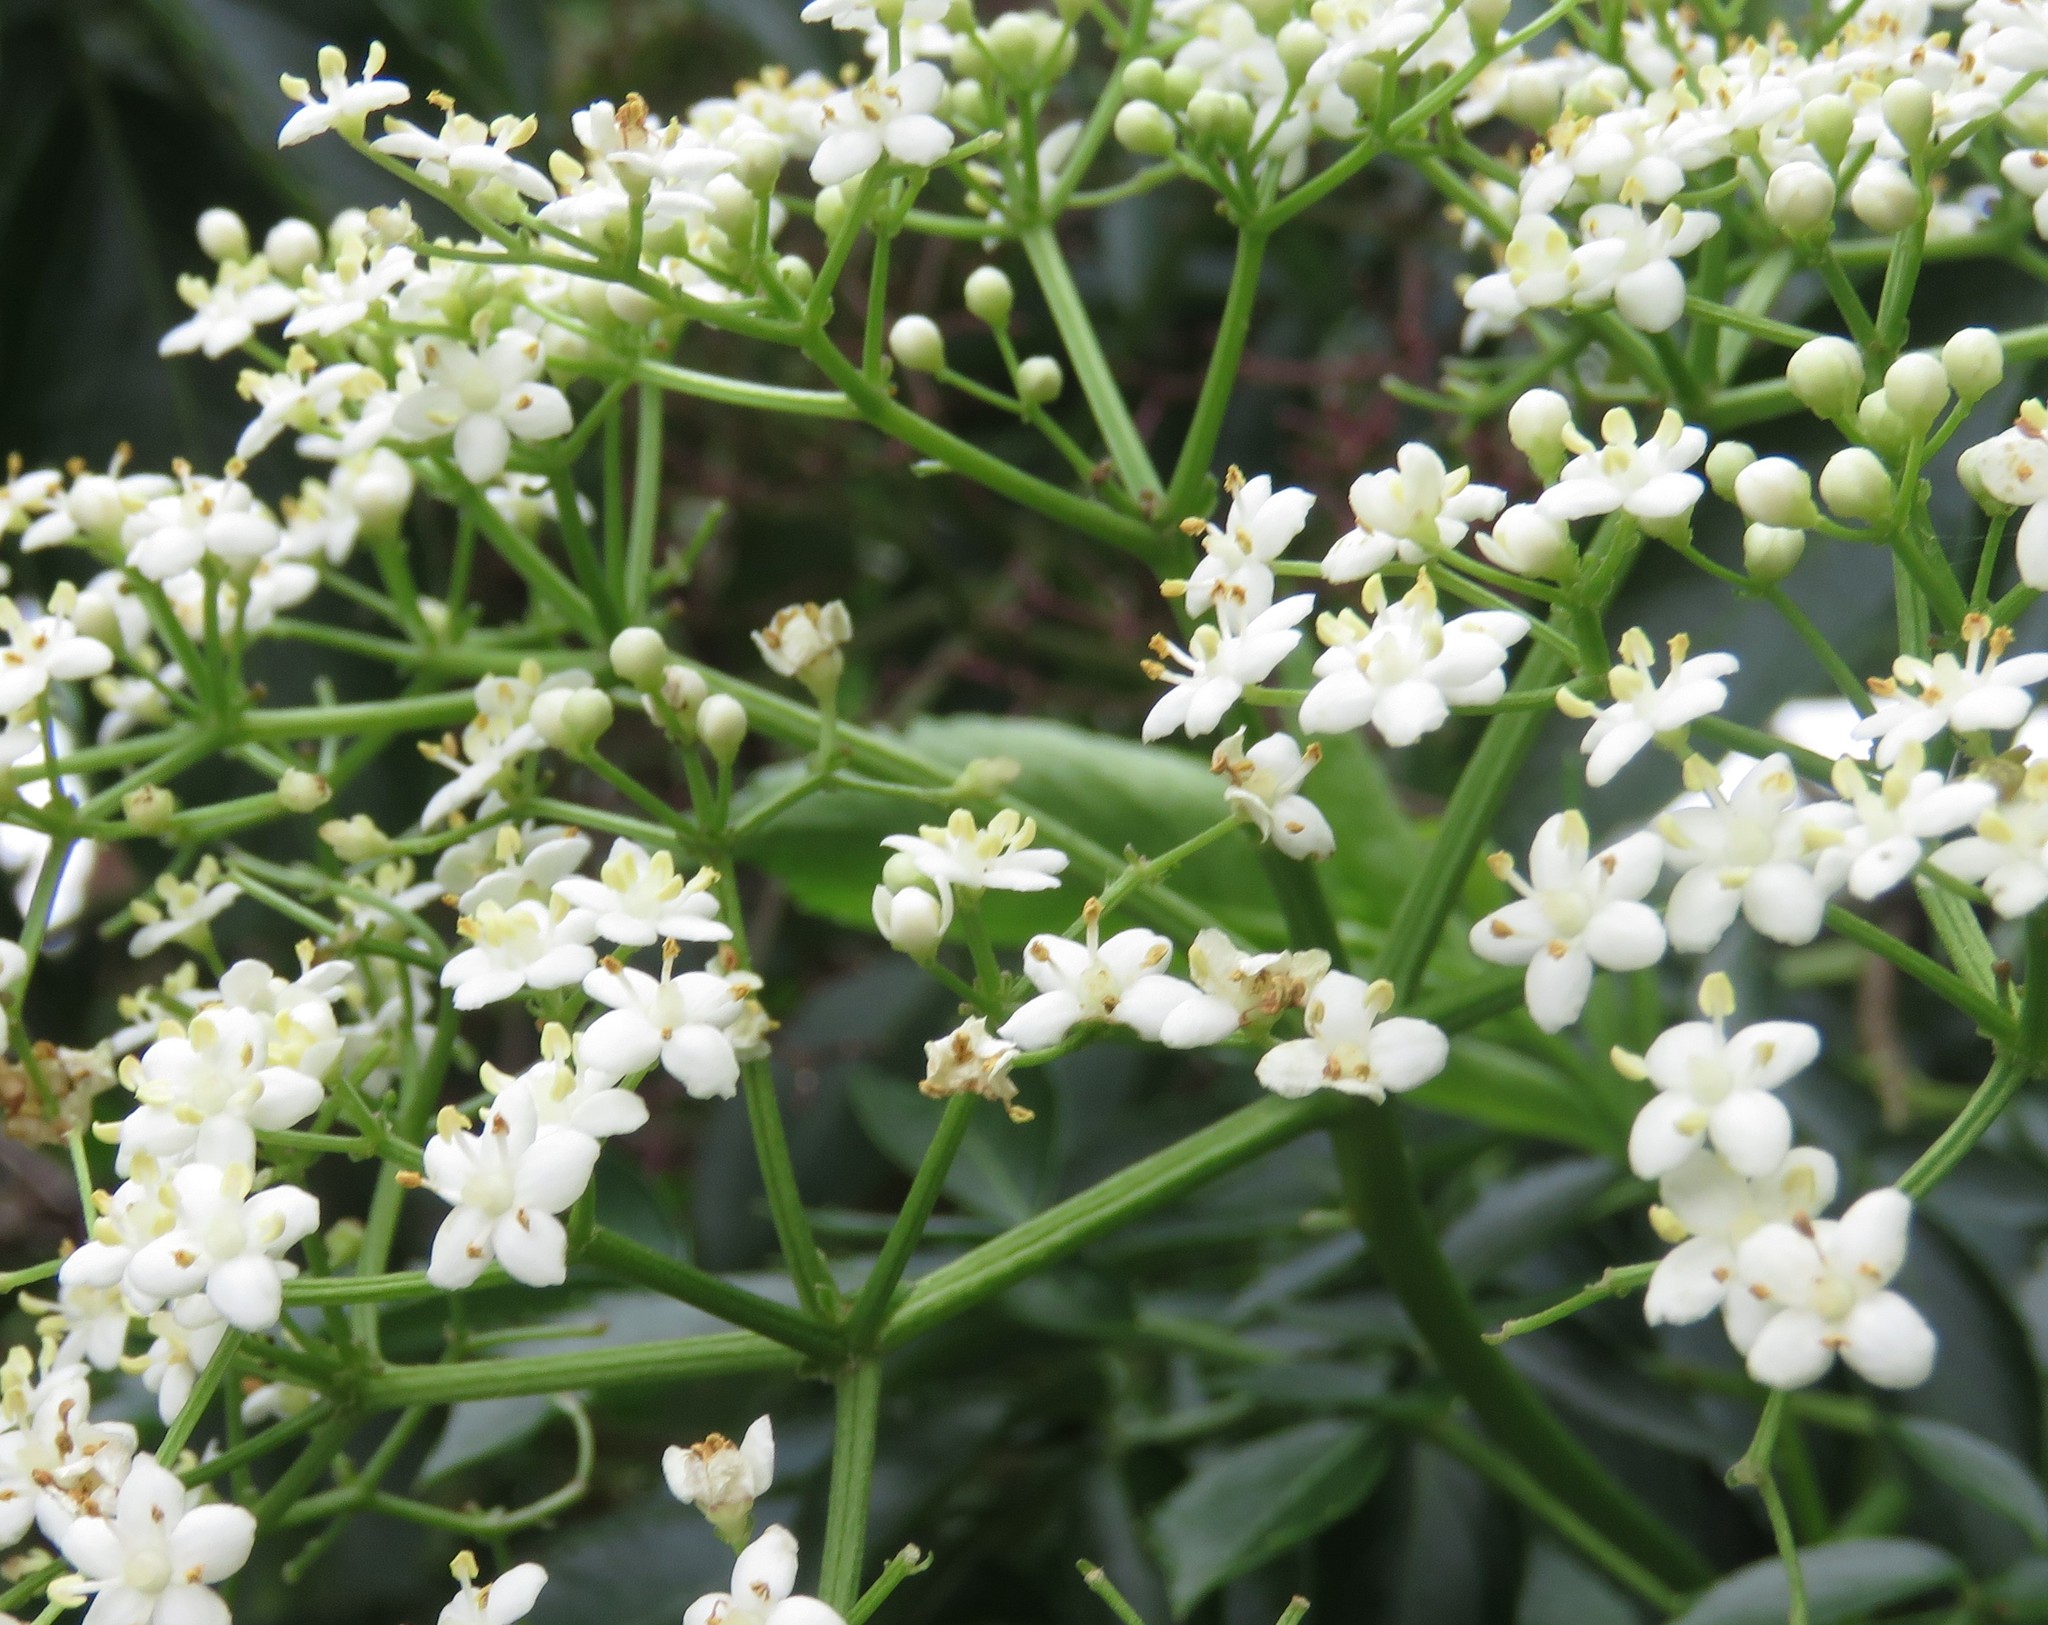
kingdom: Plantae
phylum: Tracheophyta
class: Magnoliopsida
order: Dipsacales
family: Viburnaceae
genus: Sambucus
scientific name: Sambucus nigra
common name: Elder
